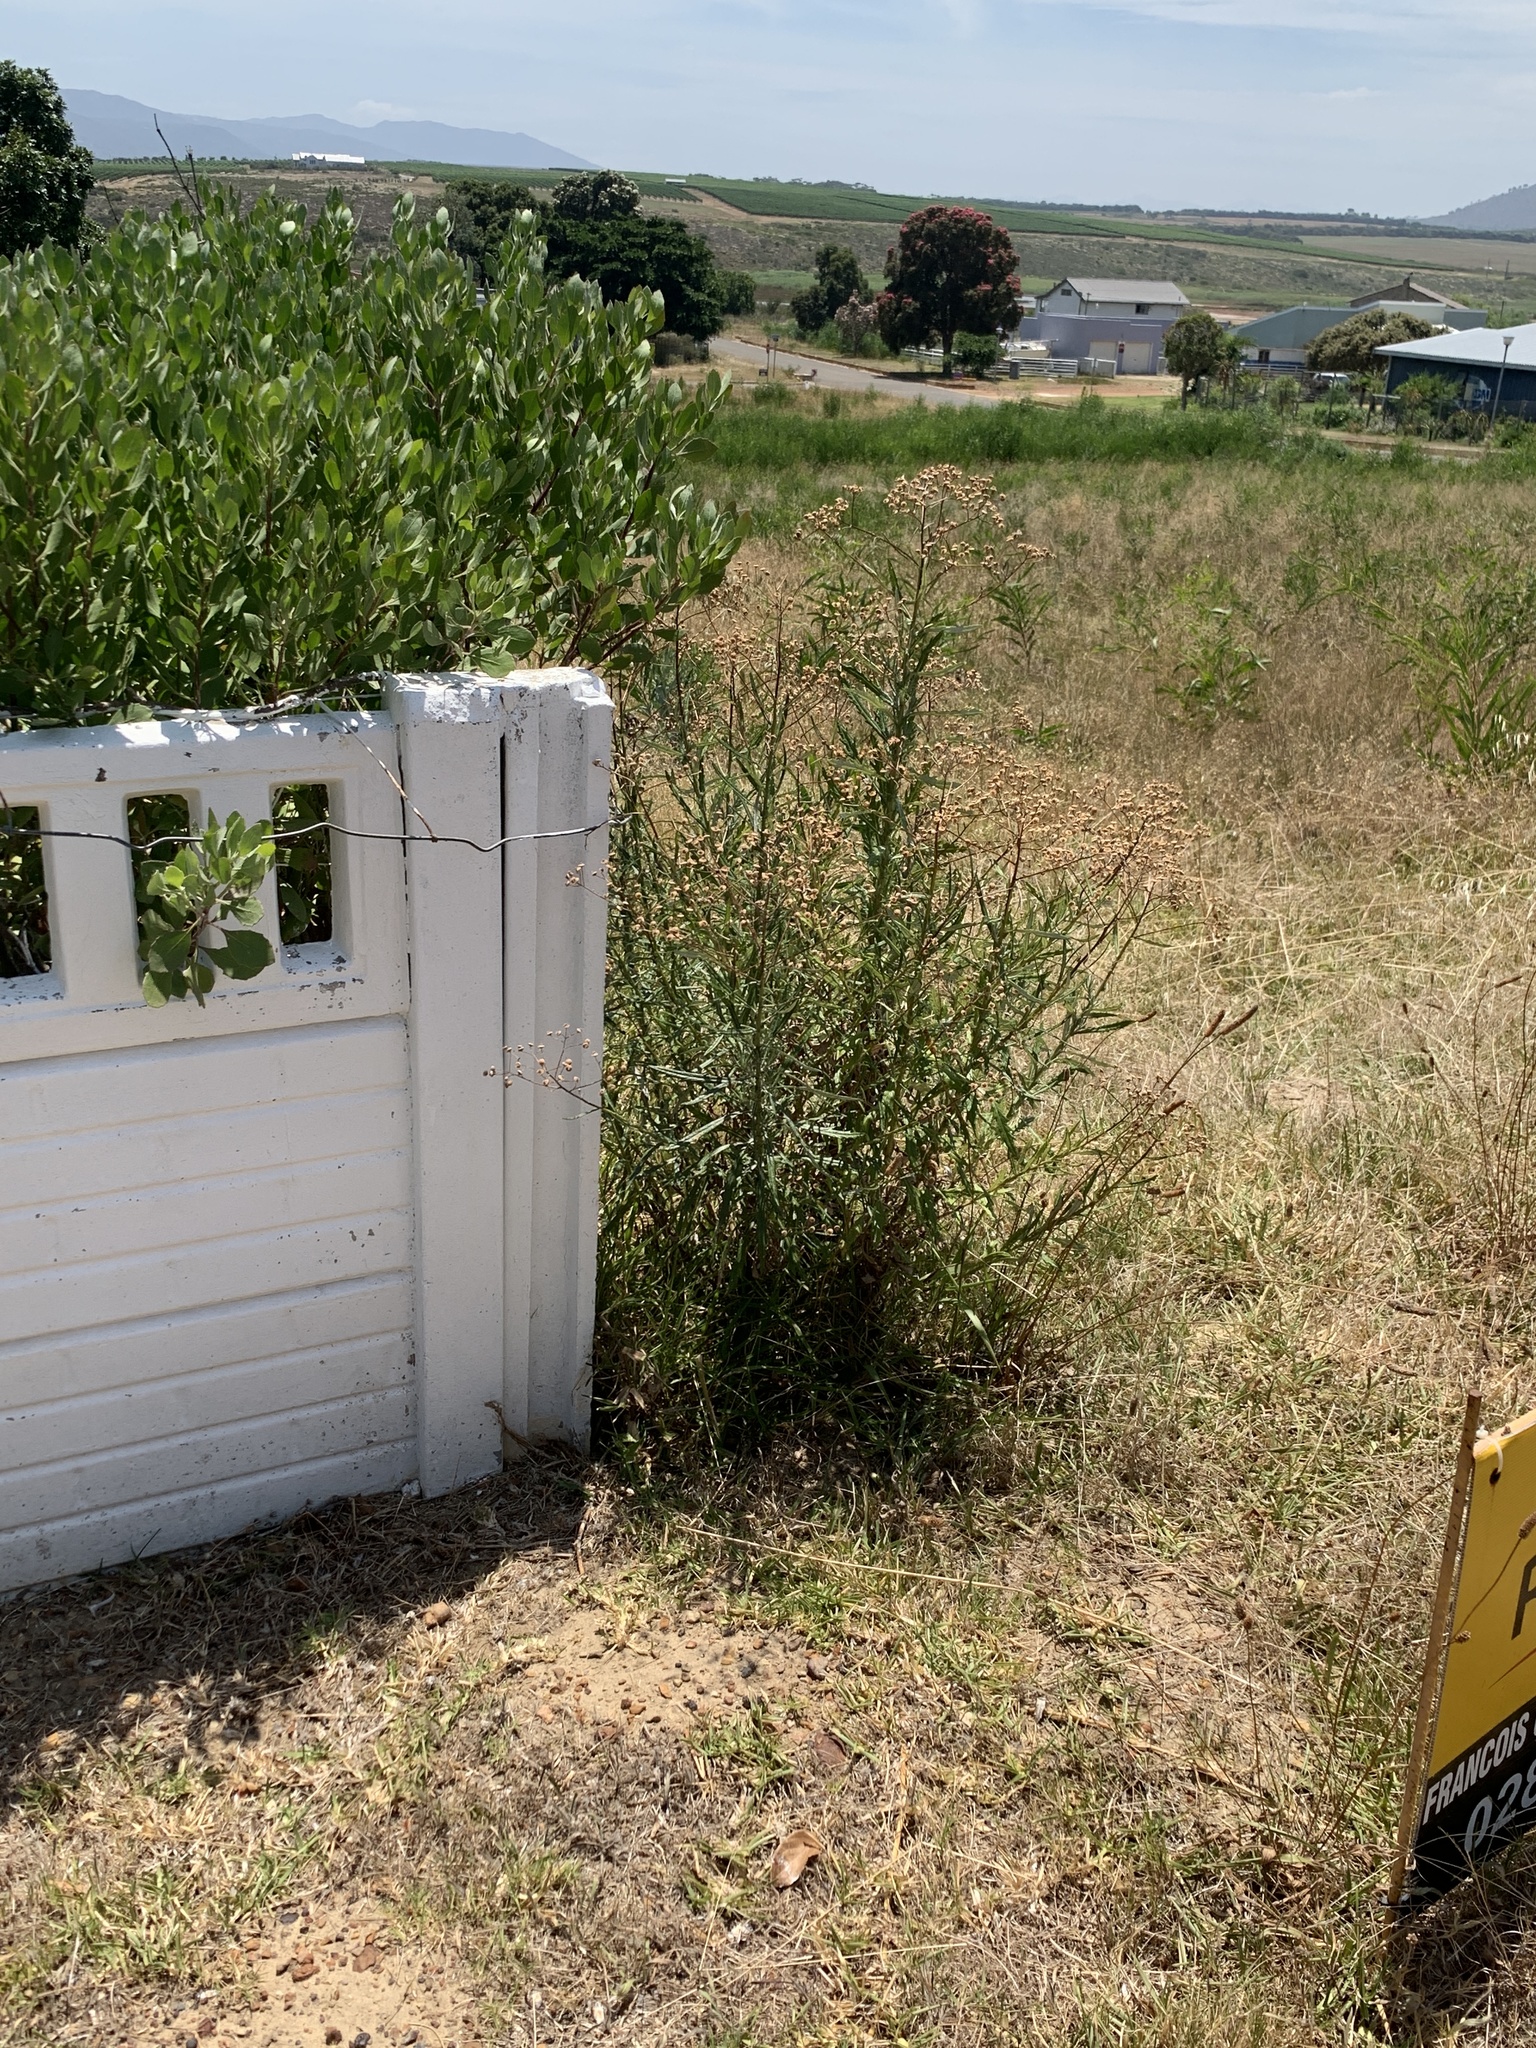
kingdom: Plantae
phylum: Tracheophyta
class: Magnoliopsida
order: Asterales
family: Asteraceae
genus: Senecio
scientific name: Senecio pterophorus
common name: Shoddy ragwort
